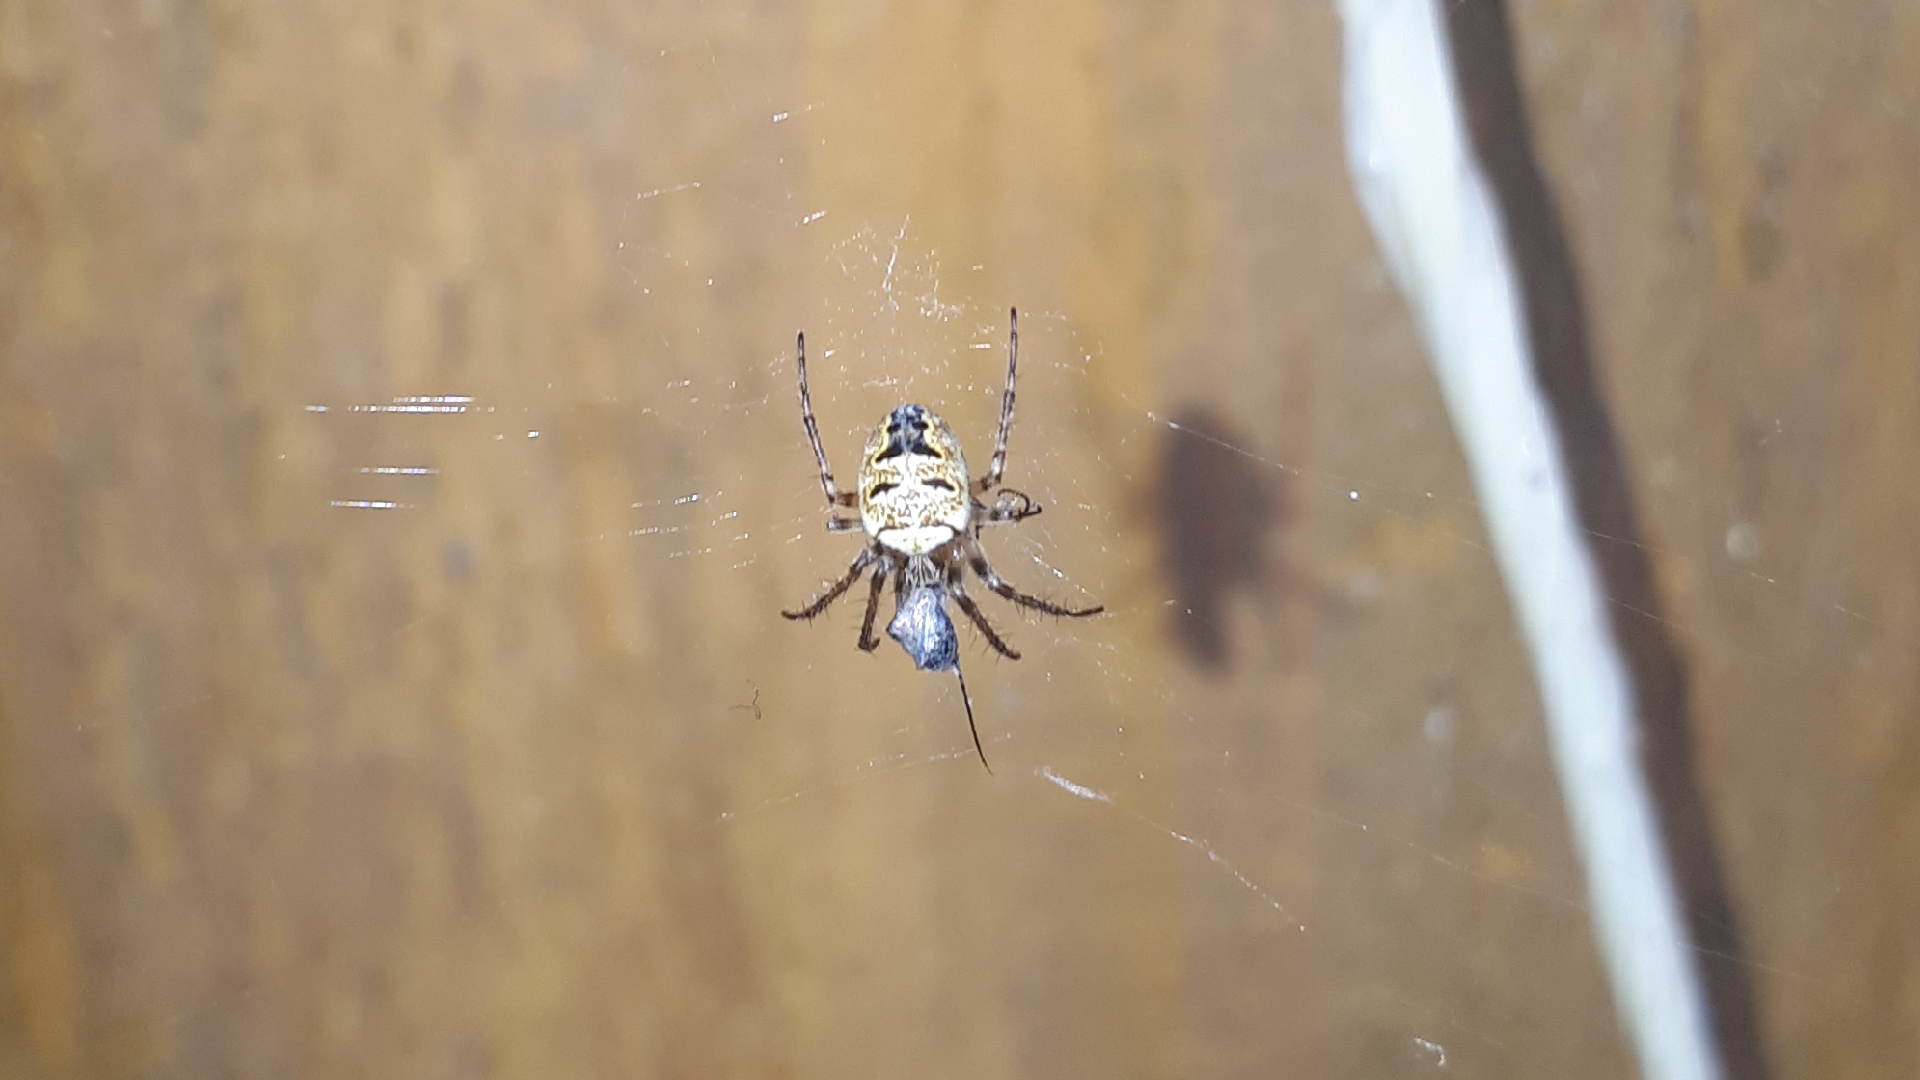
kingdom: Animalia
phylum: Arthropoda
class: Arachnida
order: Araneae
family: Araneidae
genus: Zilla
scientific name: Zilla diodia
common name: Zilla diodia
